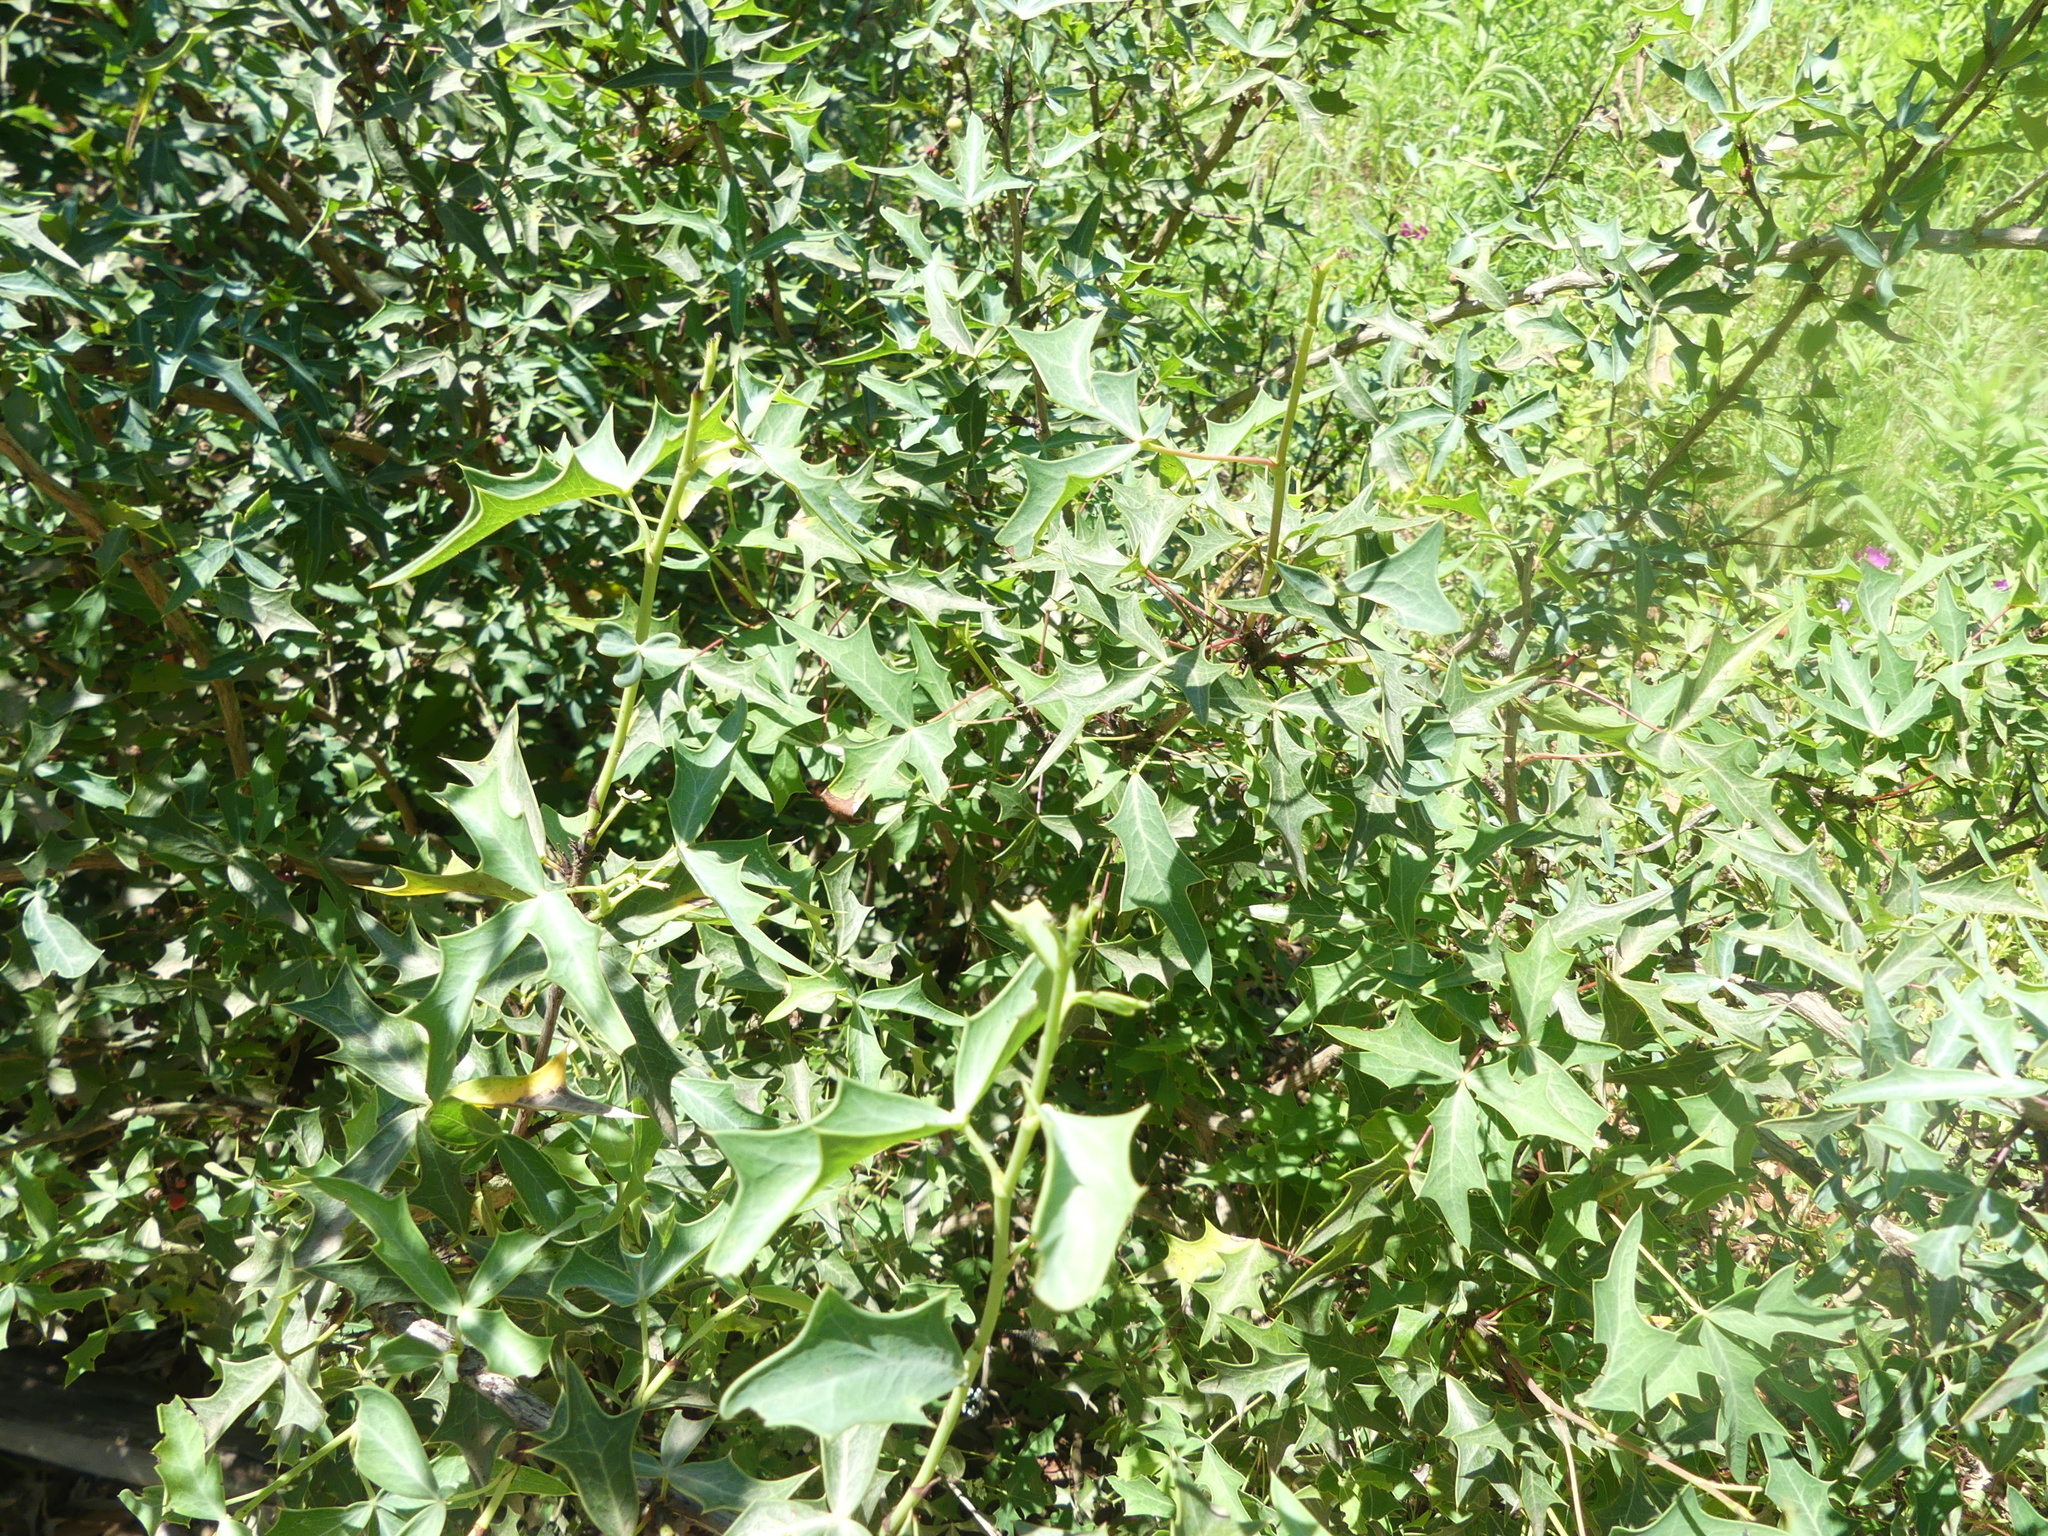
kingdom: Plantae
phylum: Tracheophyta
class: Magnoliopsida
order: Ranunculales
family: Berberidaceae
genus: Alloberberis
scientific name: Alloberberis trifoliolata
